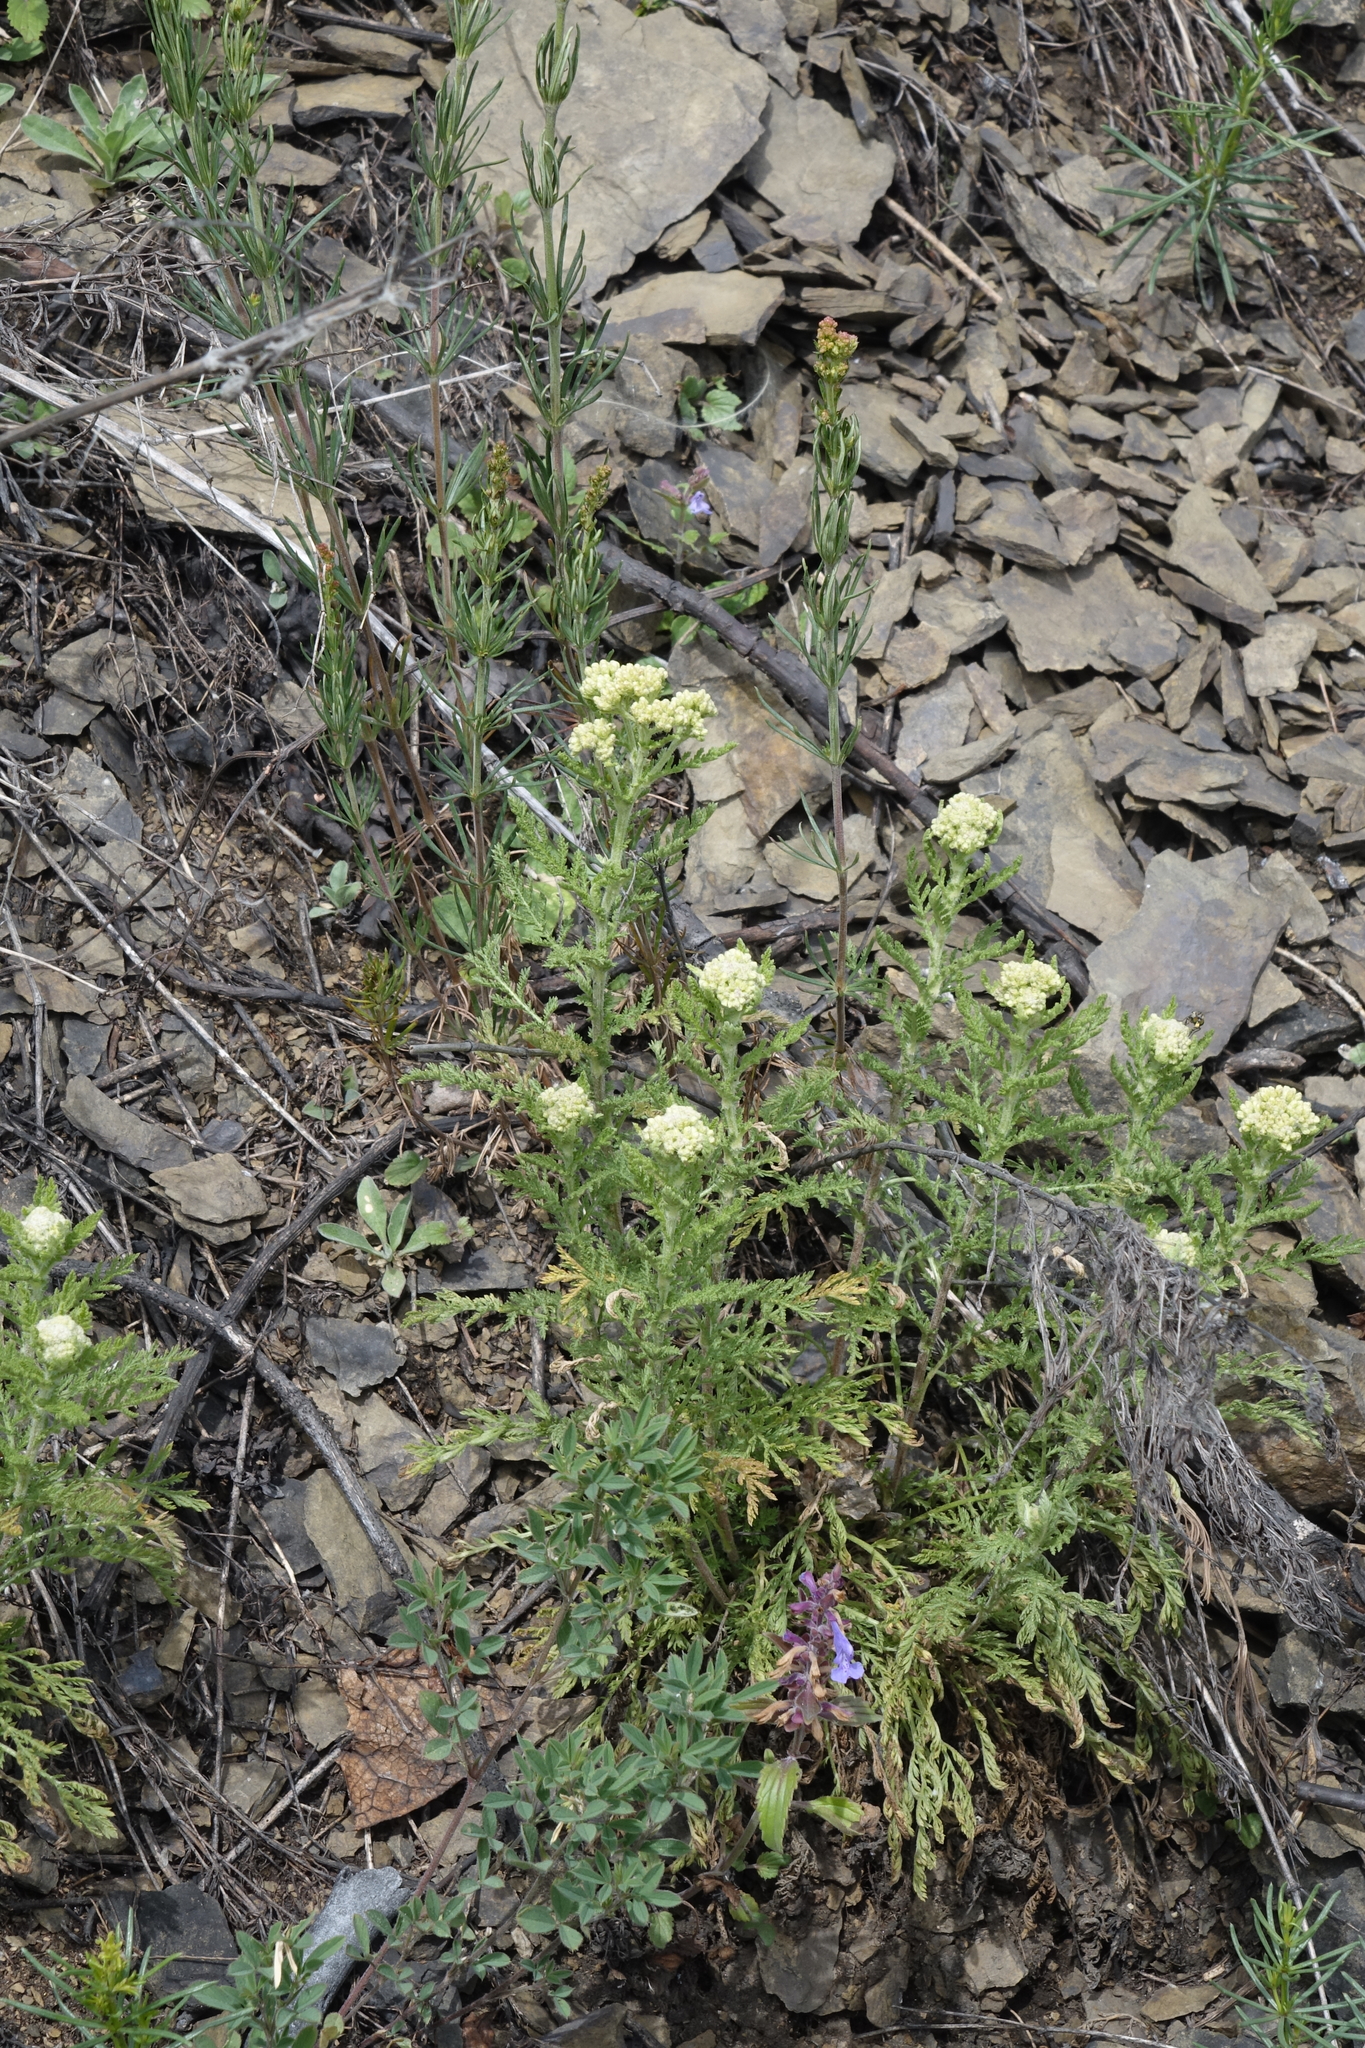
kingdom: Plantae
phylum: Tracheophyta
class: Magnoliopsida
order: Asterales
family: Asteraceae
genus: Achillea
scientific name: Achillea nobilis
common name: Noble yarrow
